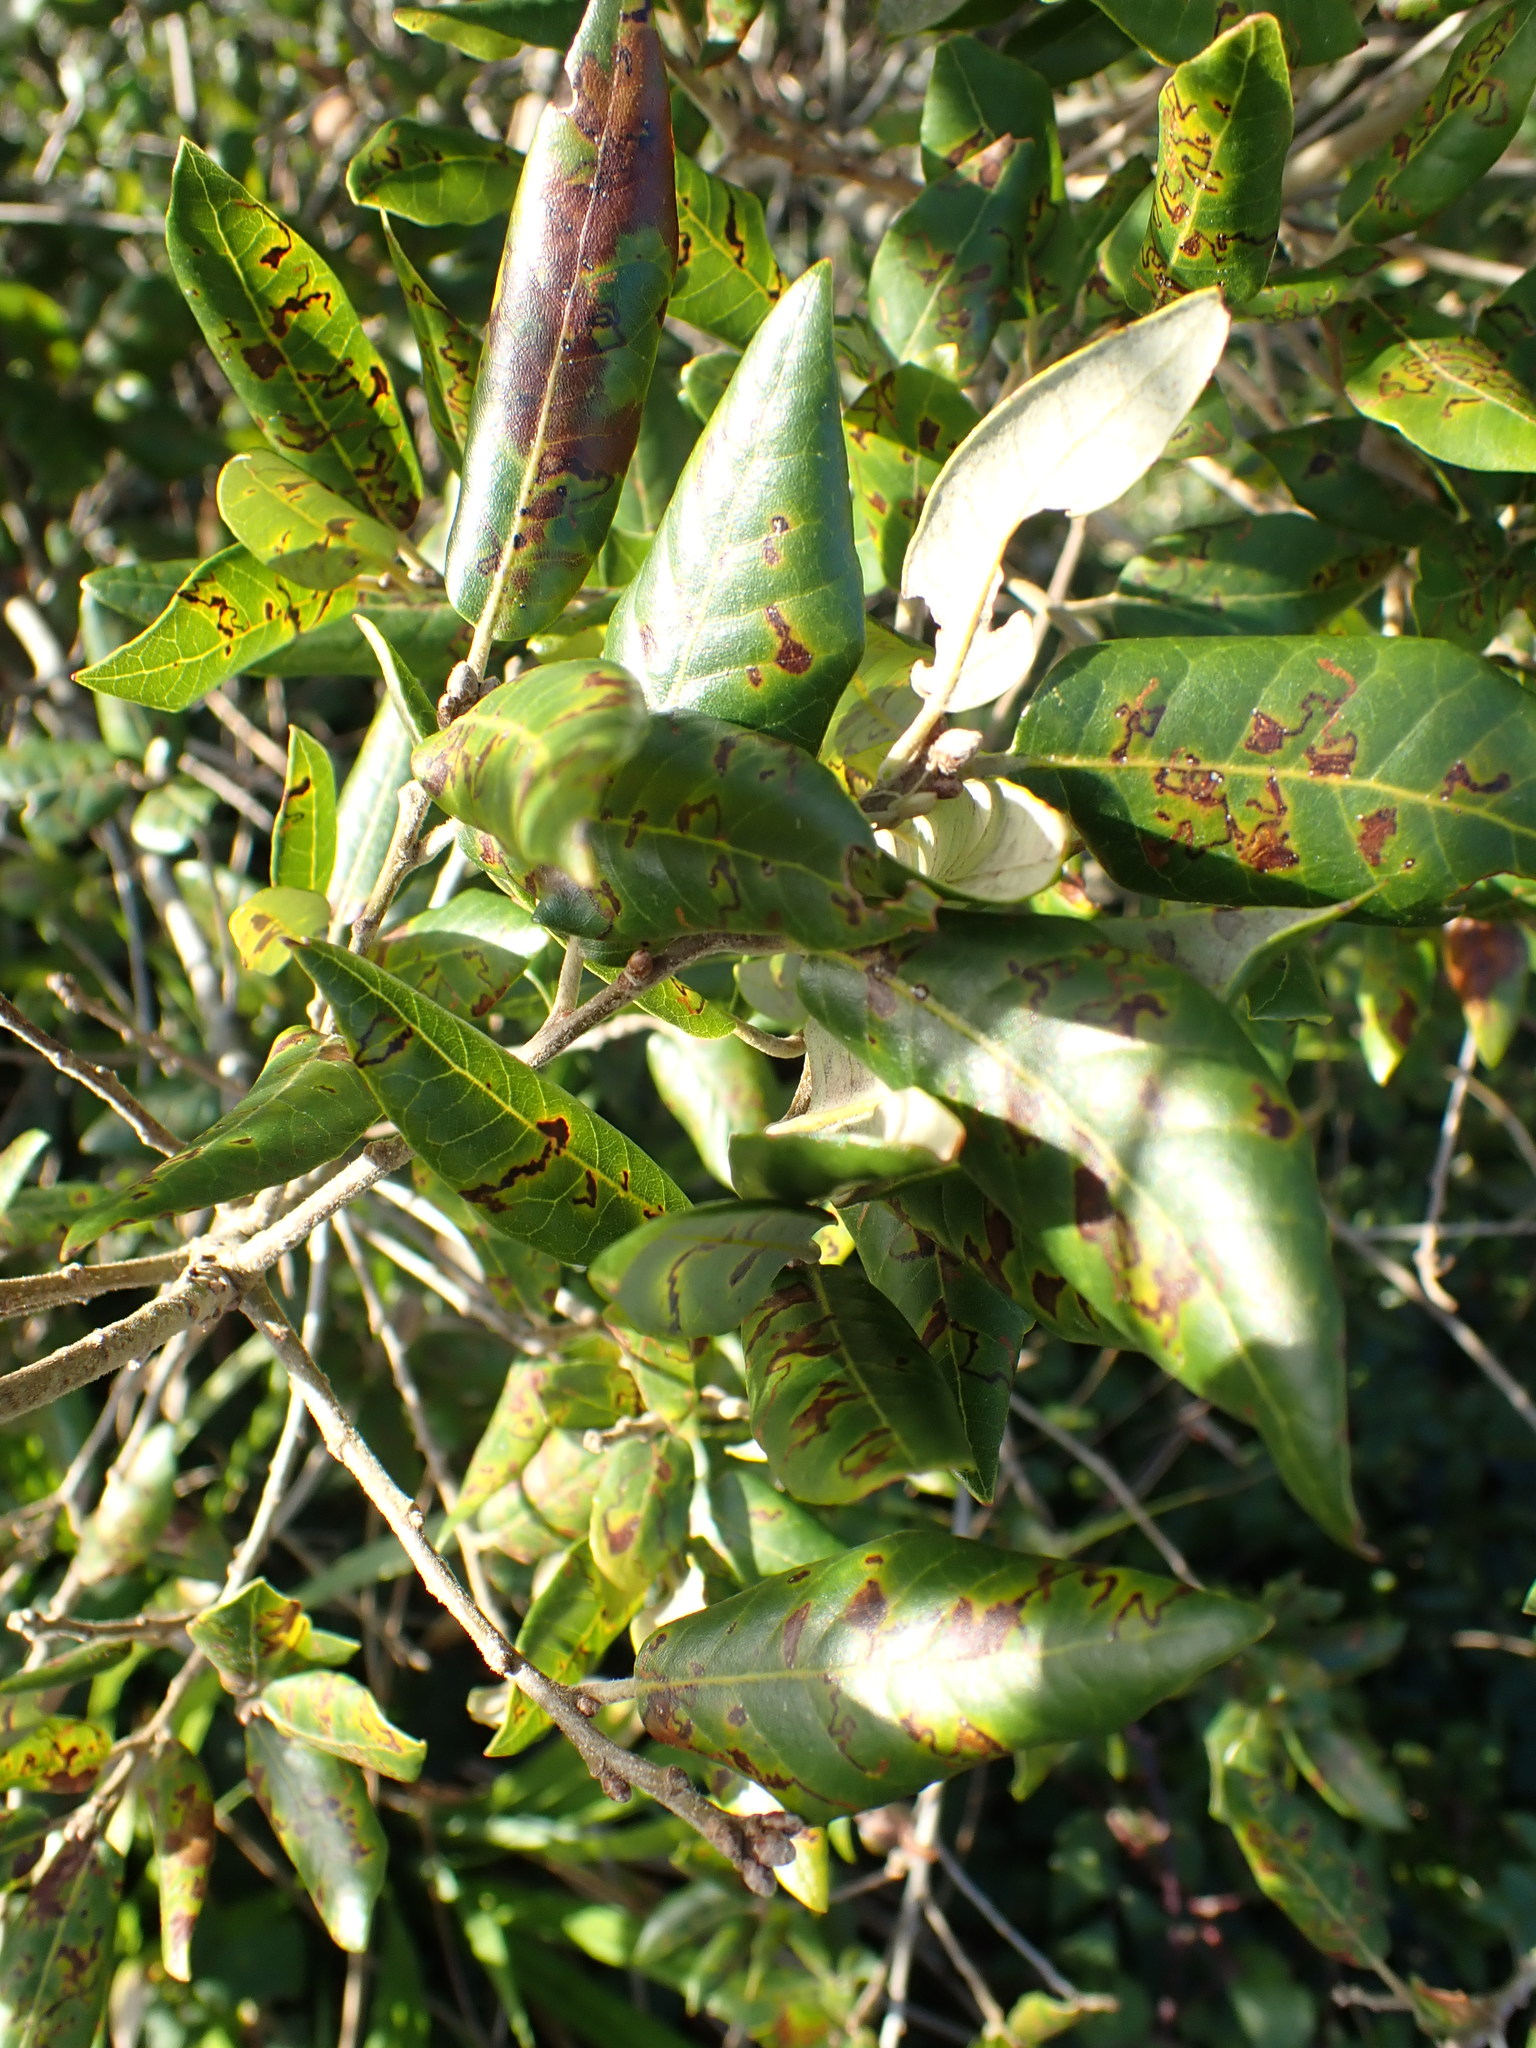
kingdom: Plantae
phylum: Tracheophyta
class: Magnoliopsida
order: Fagales
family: Fagaceae
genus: Quercus
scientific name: Quercus ilex
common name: Evergreen oak
